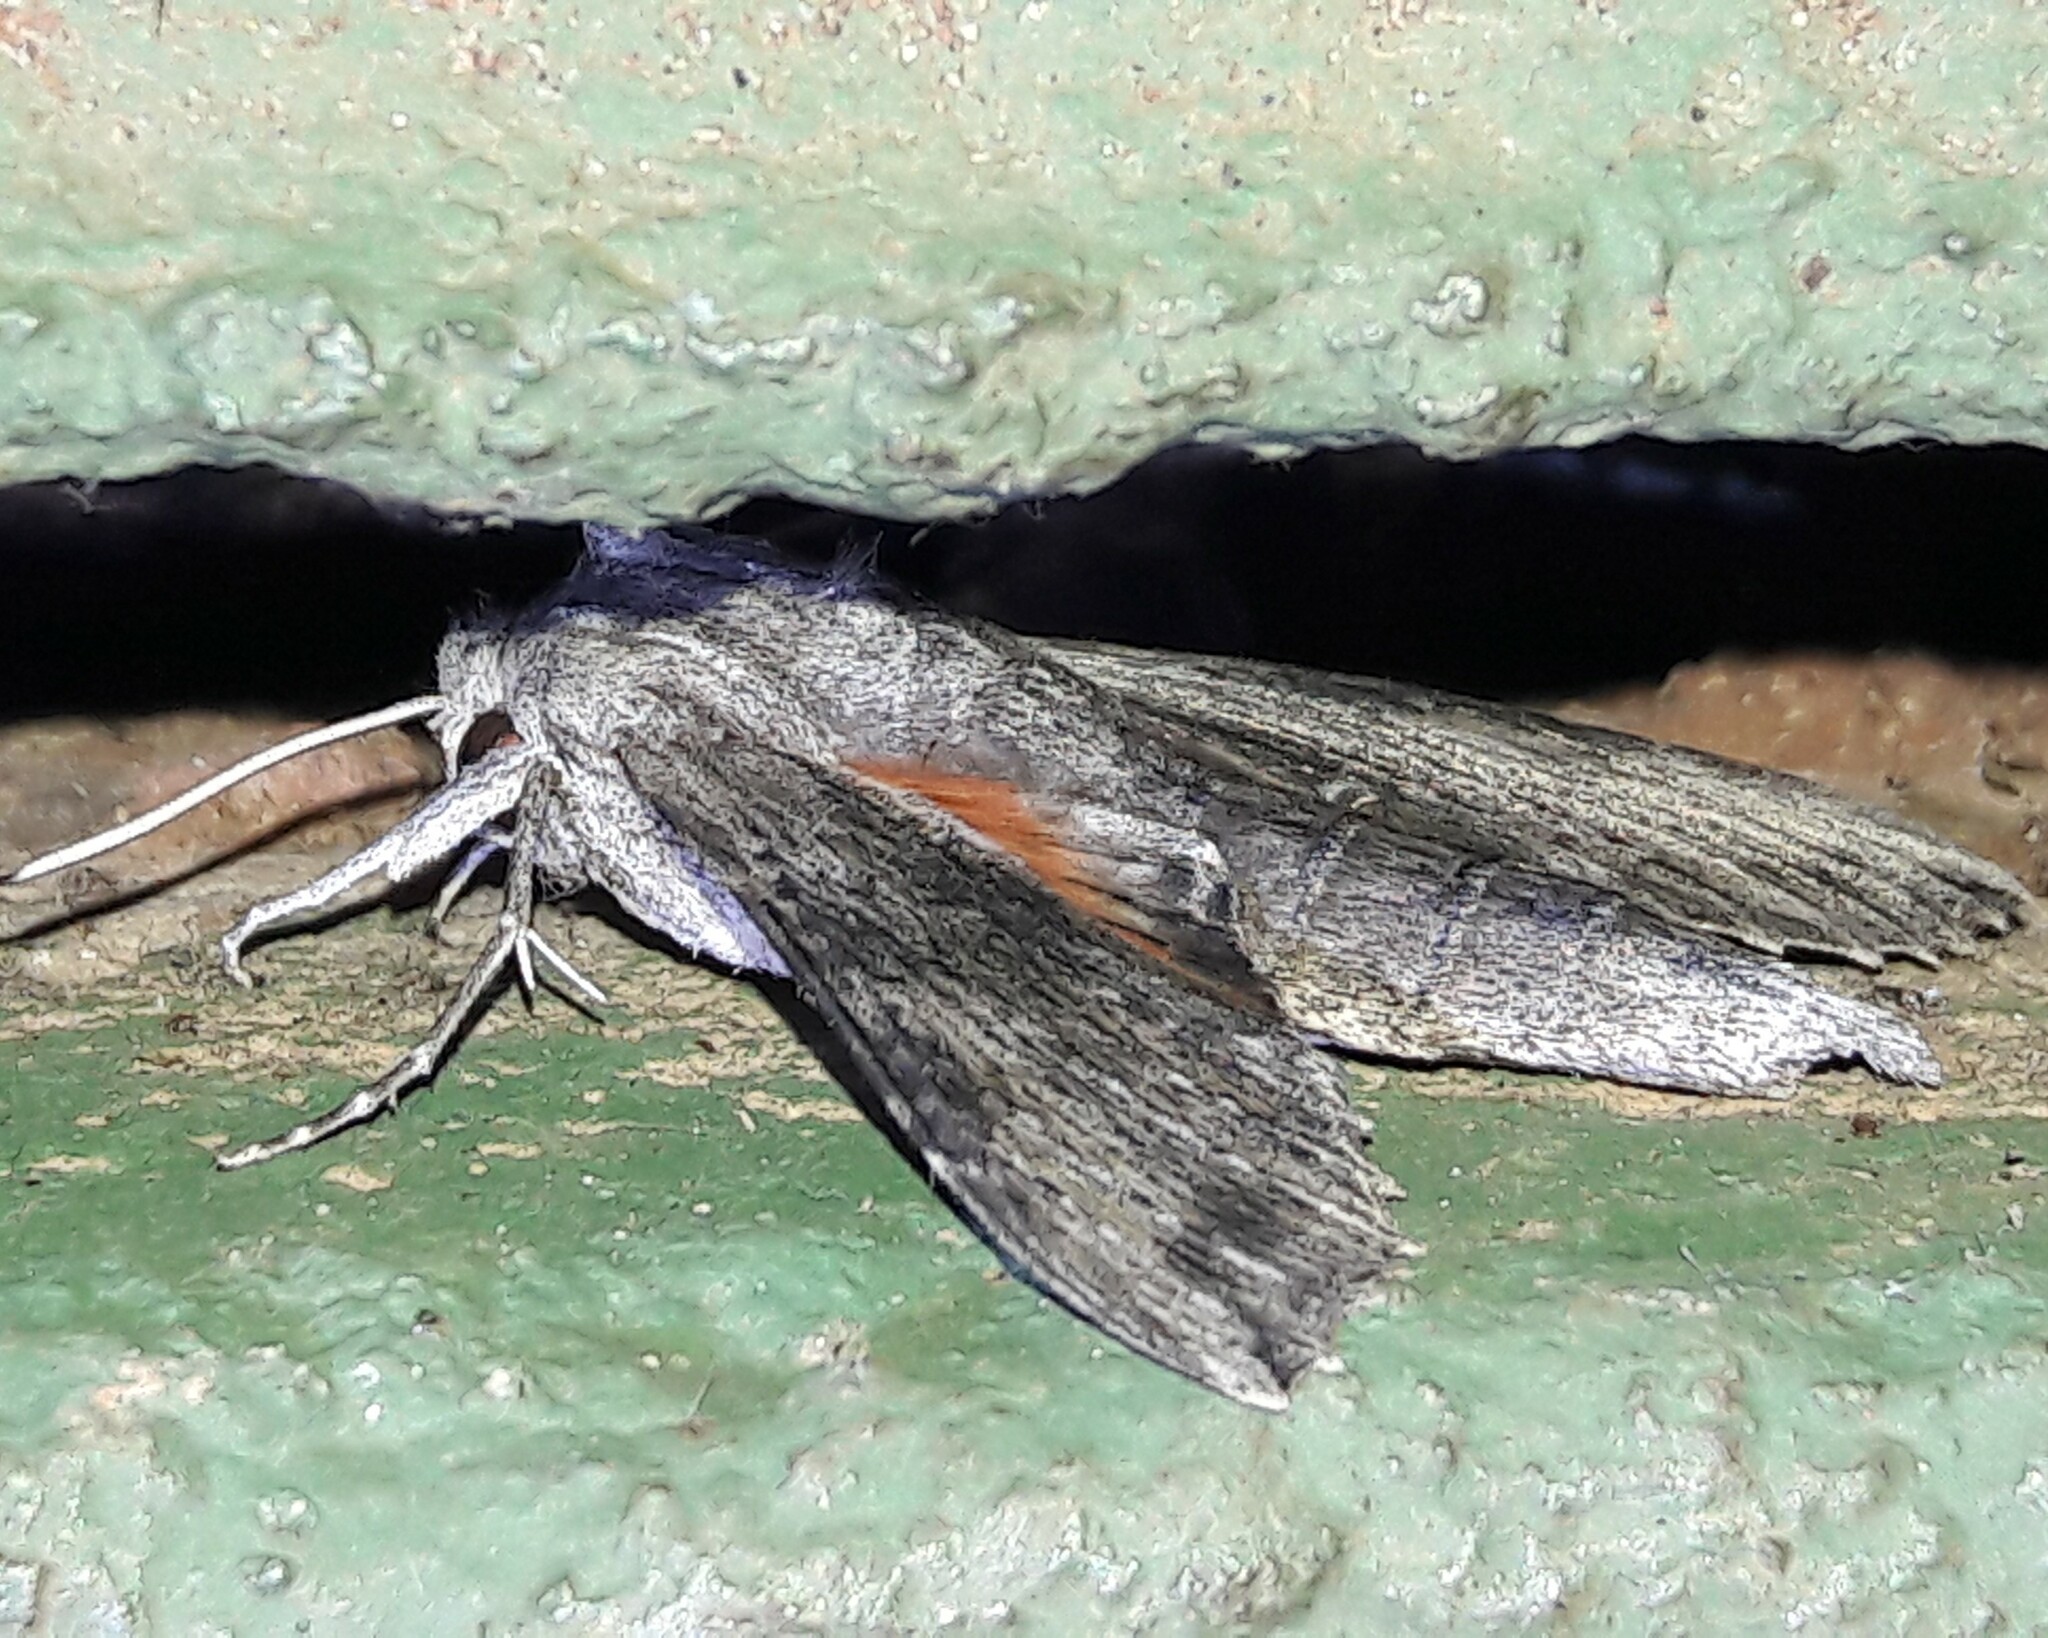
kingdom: Animalia
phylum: Arthropoda
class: Insecta
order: Lepidoptera
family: Sphingidae
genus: Erinnyis
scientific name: Erinnyis obscura
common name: Obscure sphinx
